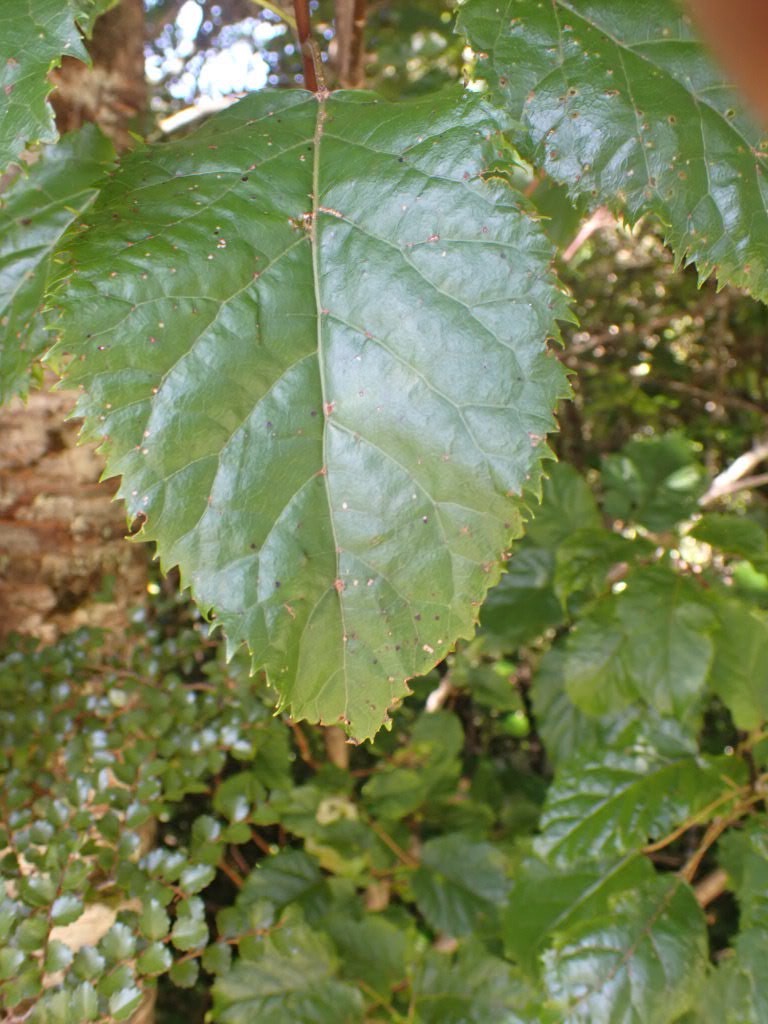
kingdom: Plantae
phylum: Tracheophyta
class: Magnoliopsida
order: Oxalidales
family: Elaeocarpaceae
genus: Aristotelia
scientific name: Aristotelia serrata
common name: New zealand wineberry
